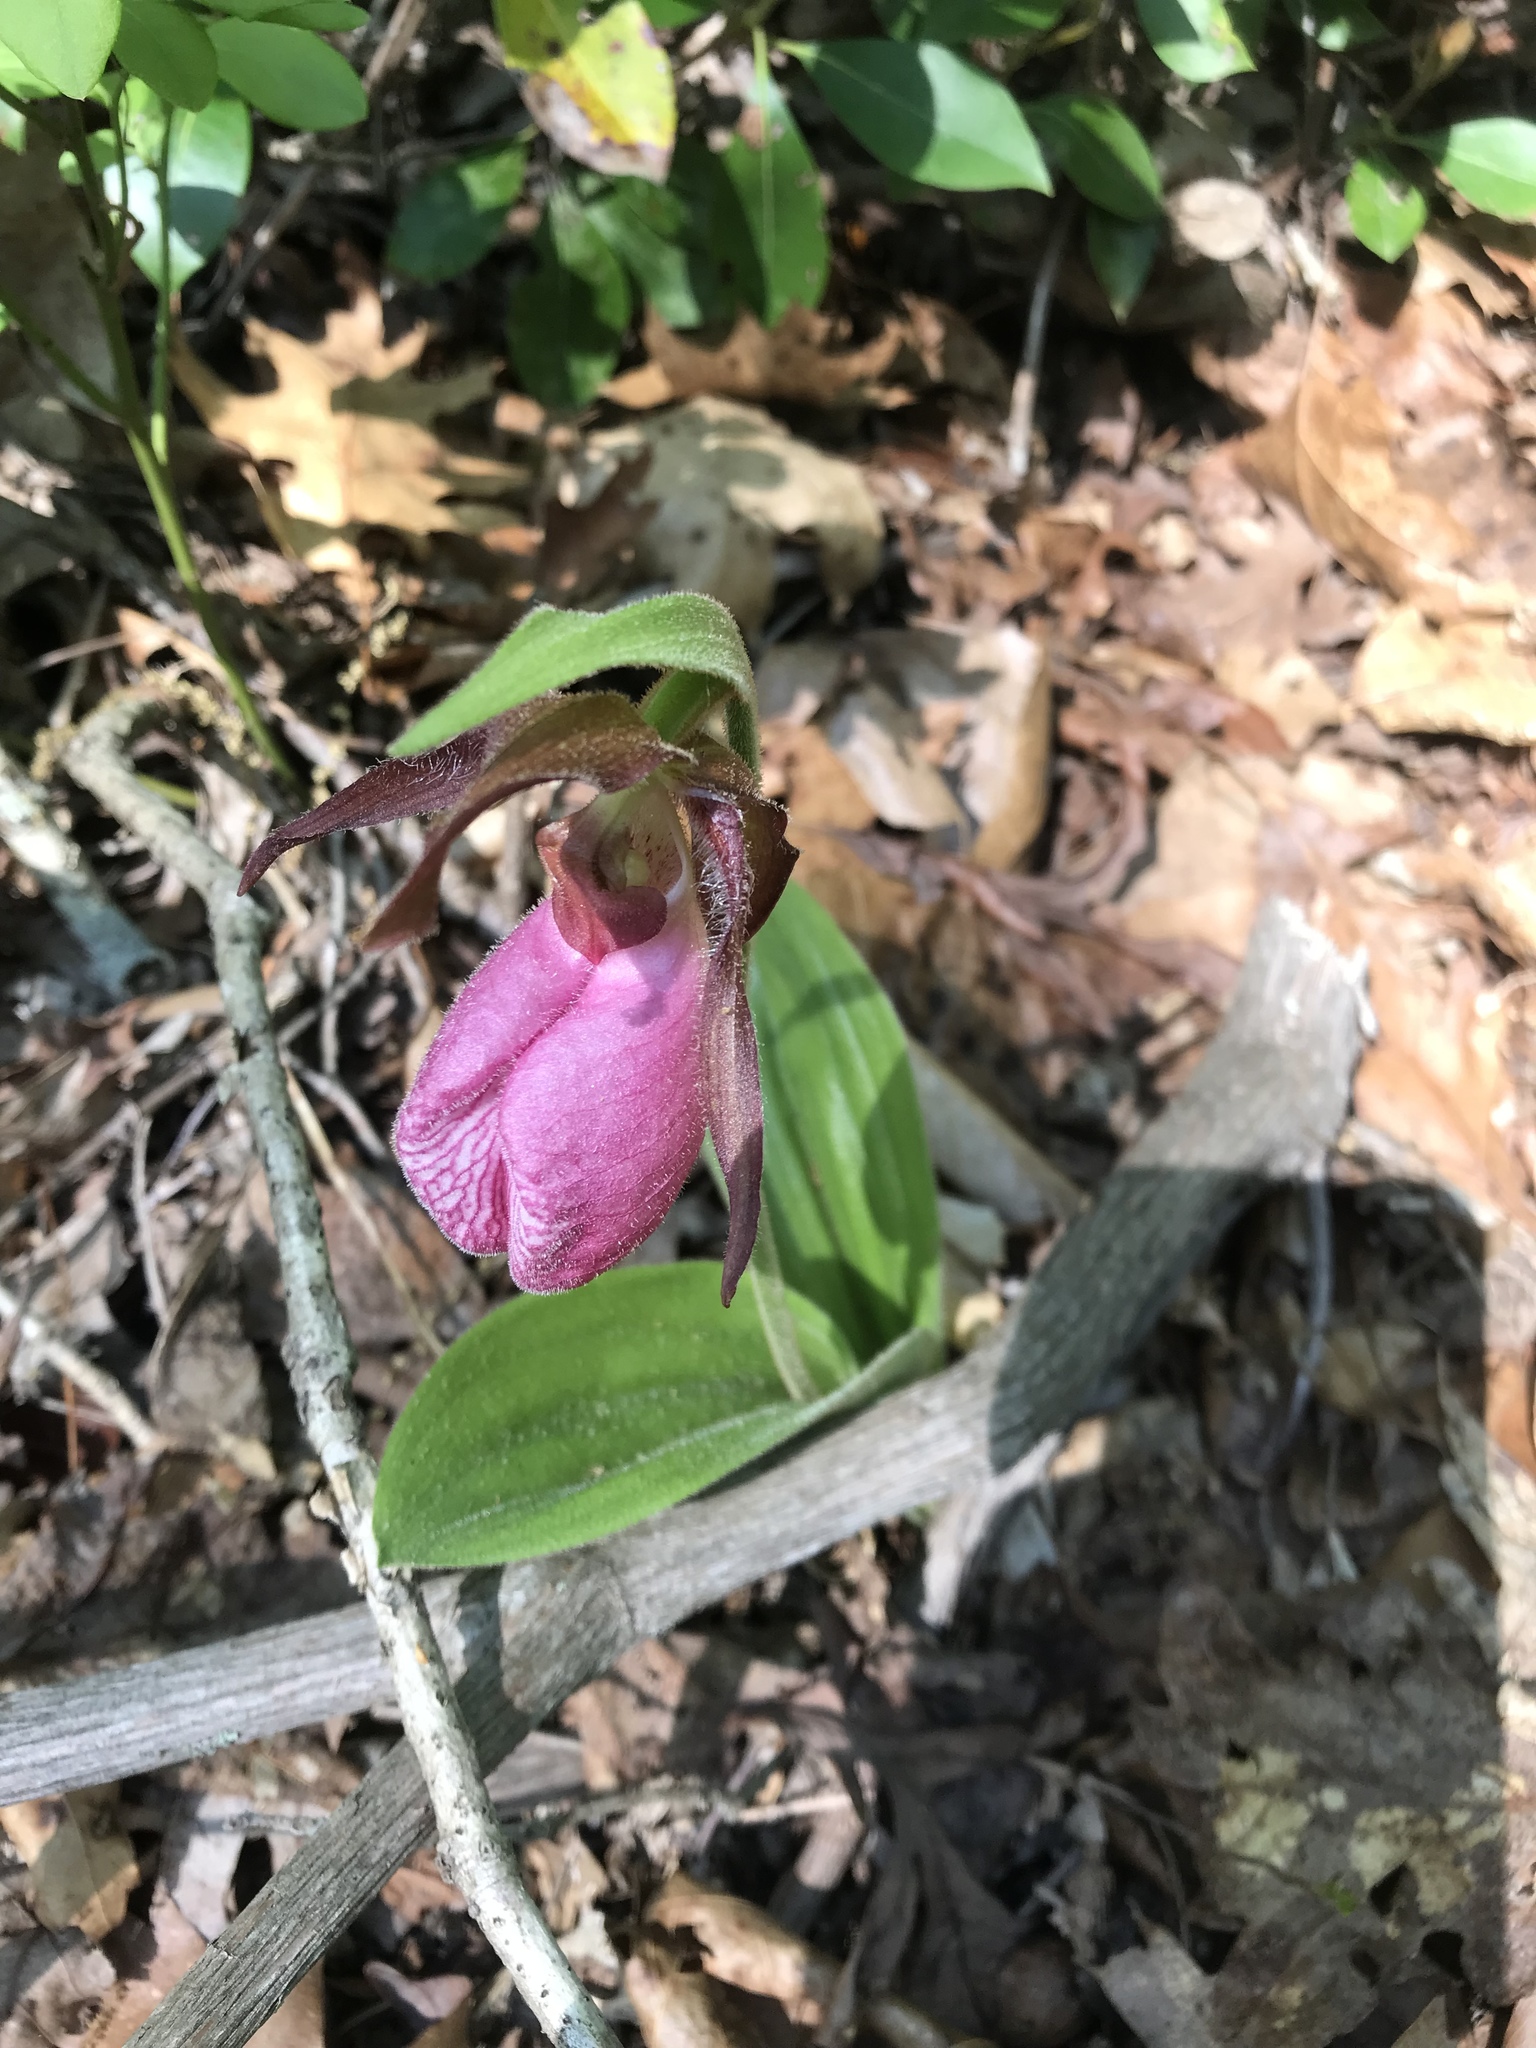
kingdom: Plantae
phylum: Tracheophyta
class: Liliopsida
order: Asparagales
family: Orchidaceae
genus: Cypripedium
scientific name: Cypripedium acaule
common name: Pink lady's-slipper
